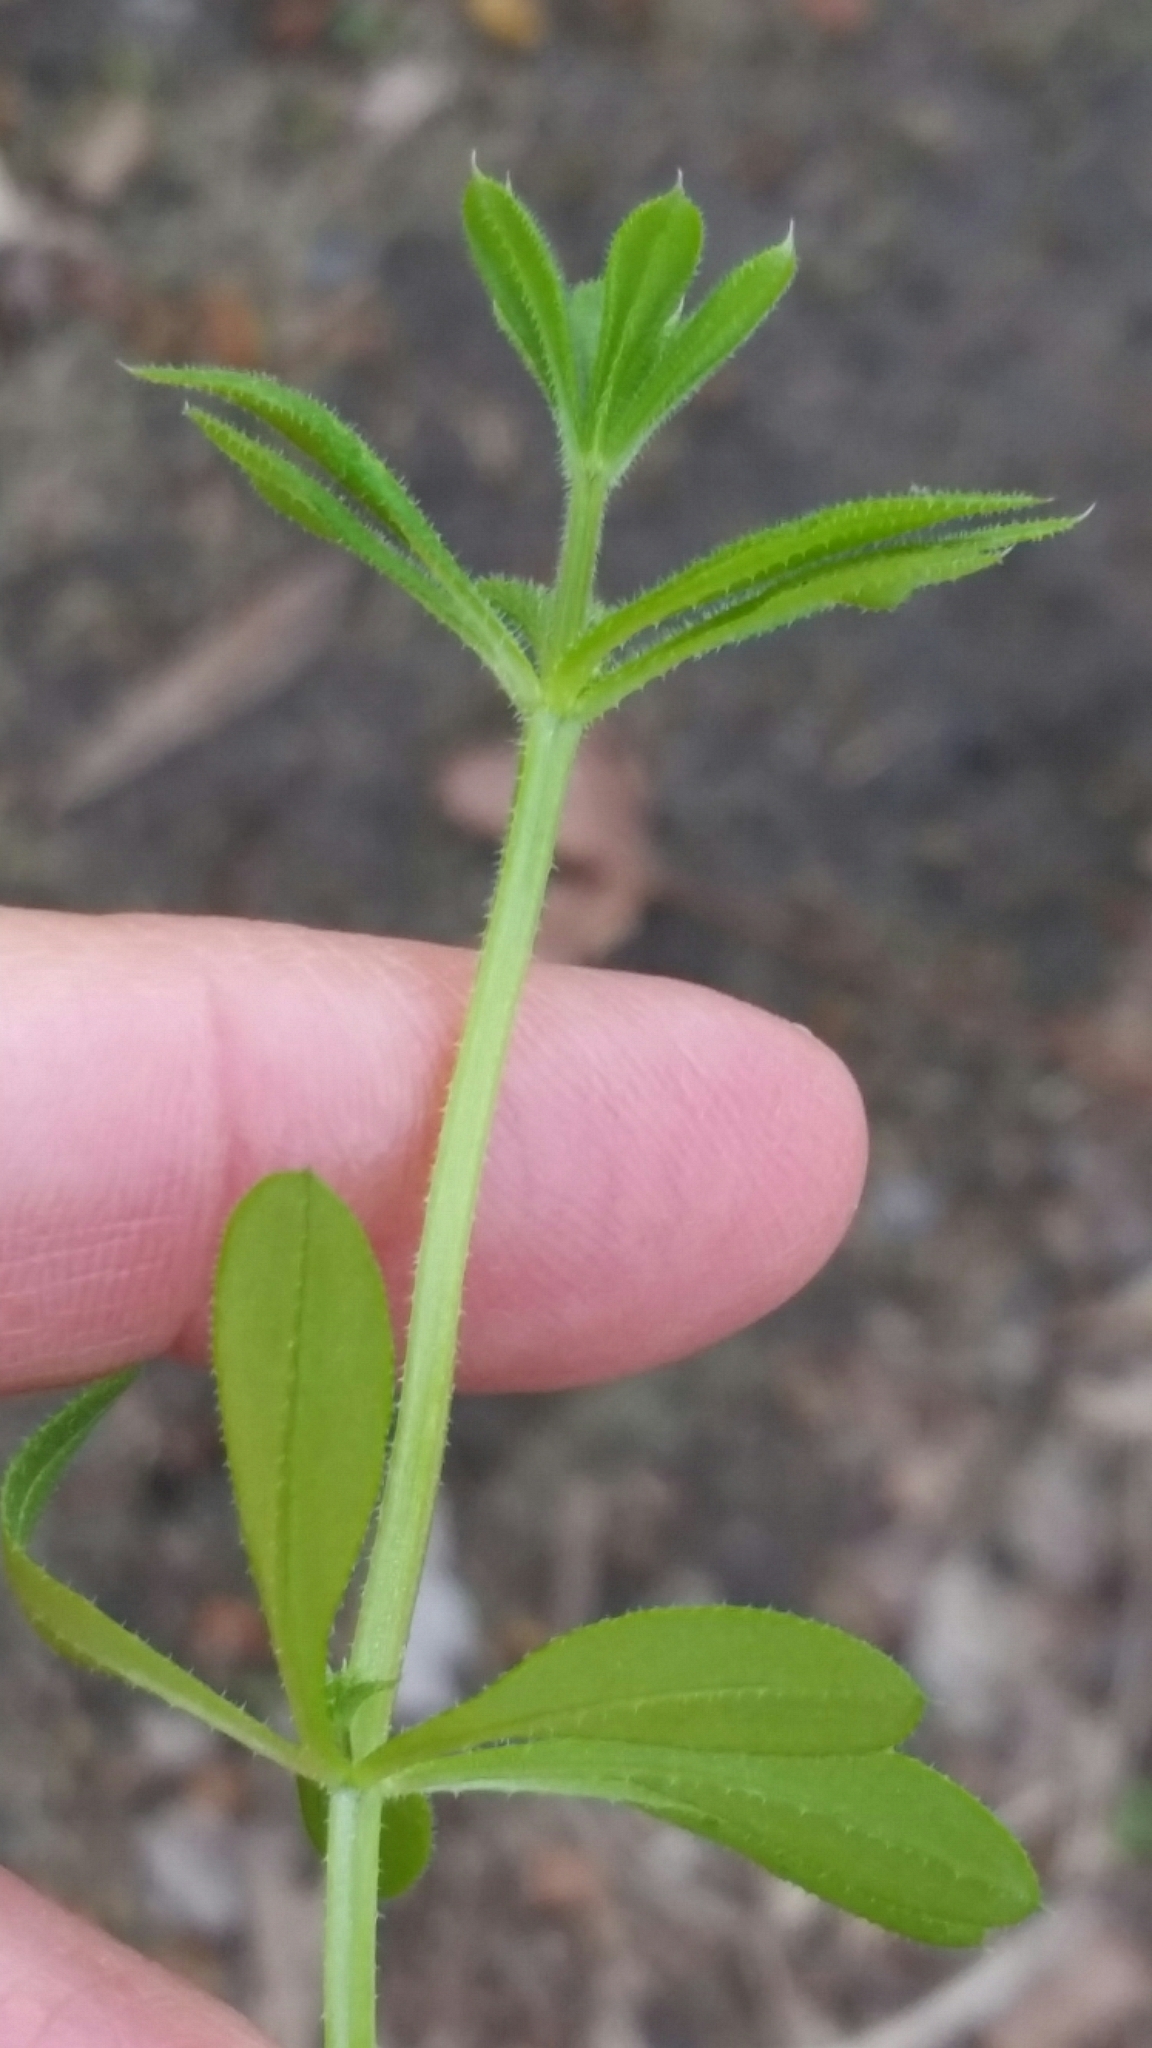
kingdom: Plantae
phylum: Tracheophyta
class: Magnoliopsida
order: Gentianales
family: Rubiaceae
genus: Galium
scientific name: Galium aparine
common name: Cleavers
